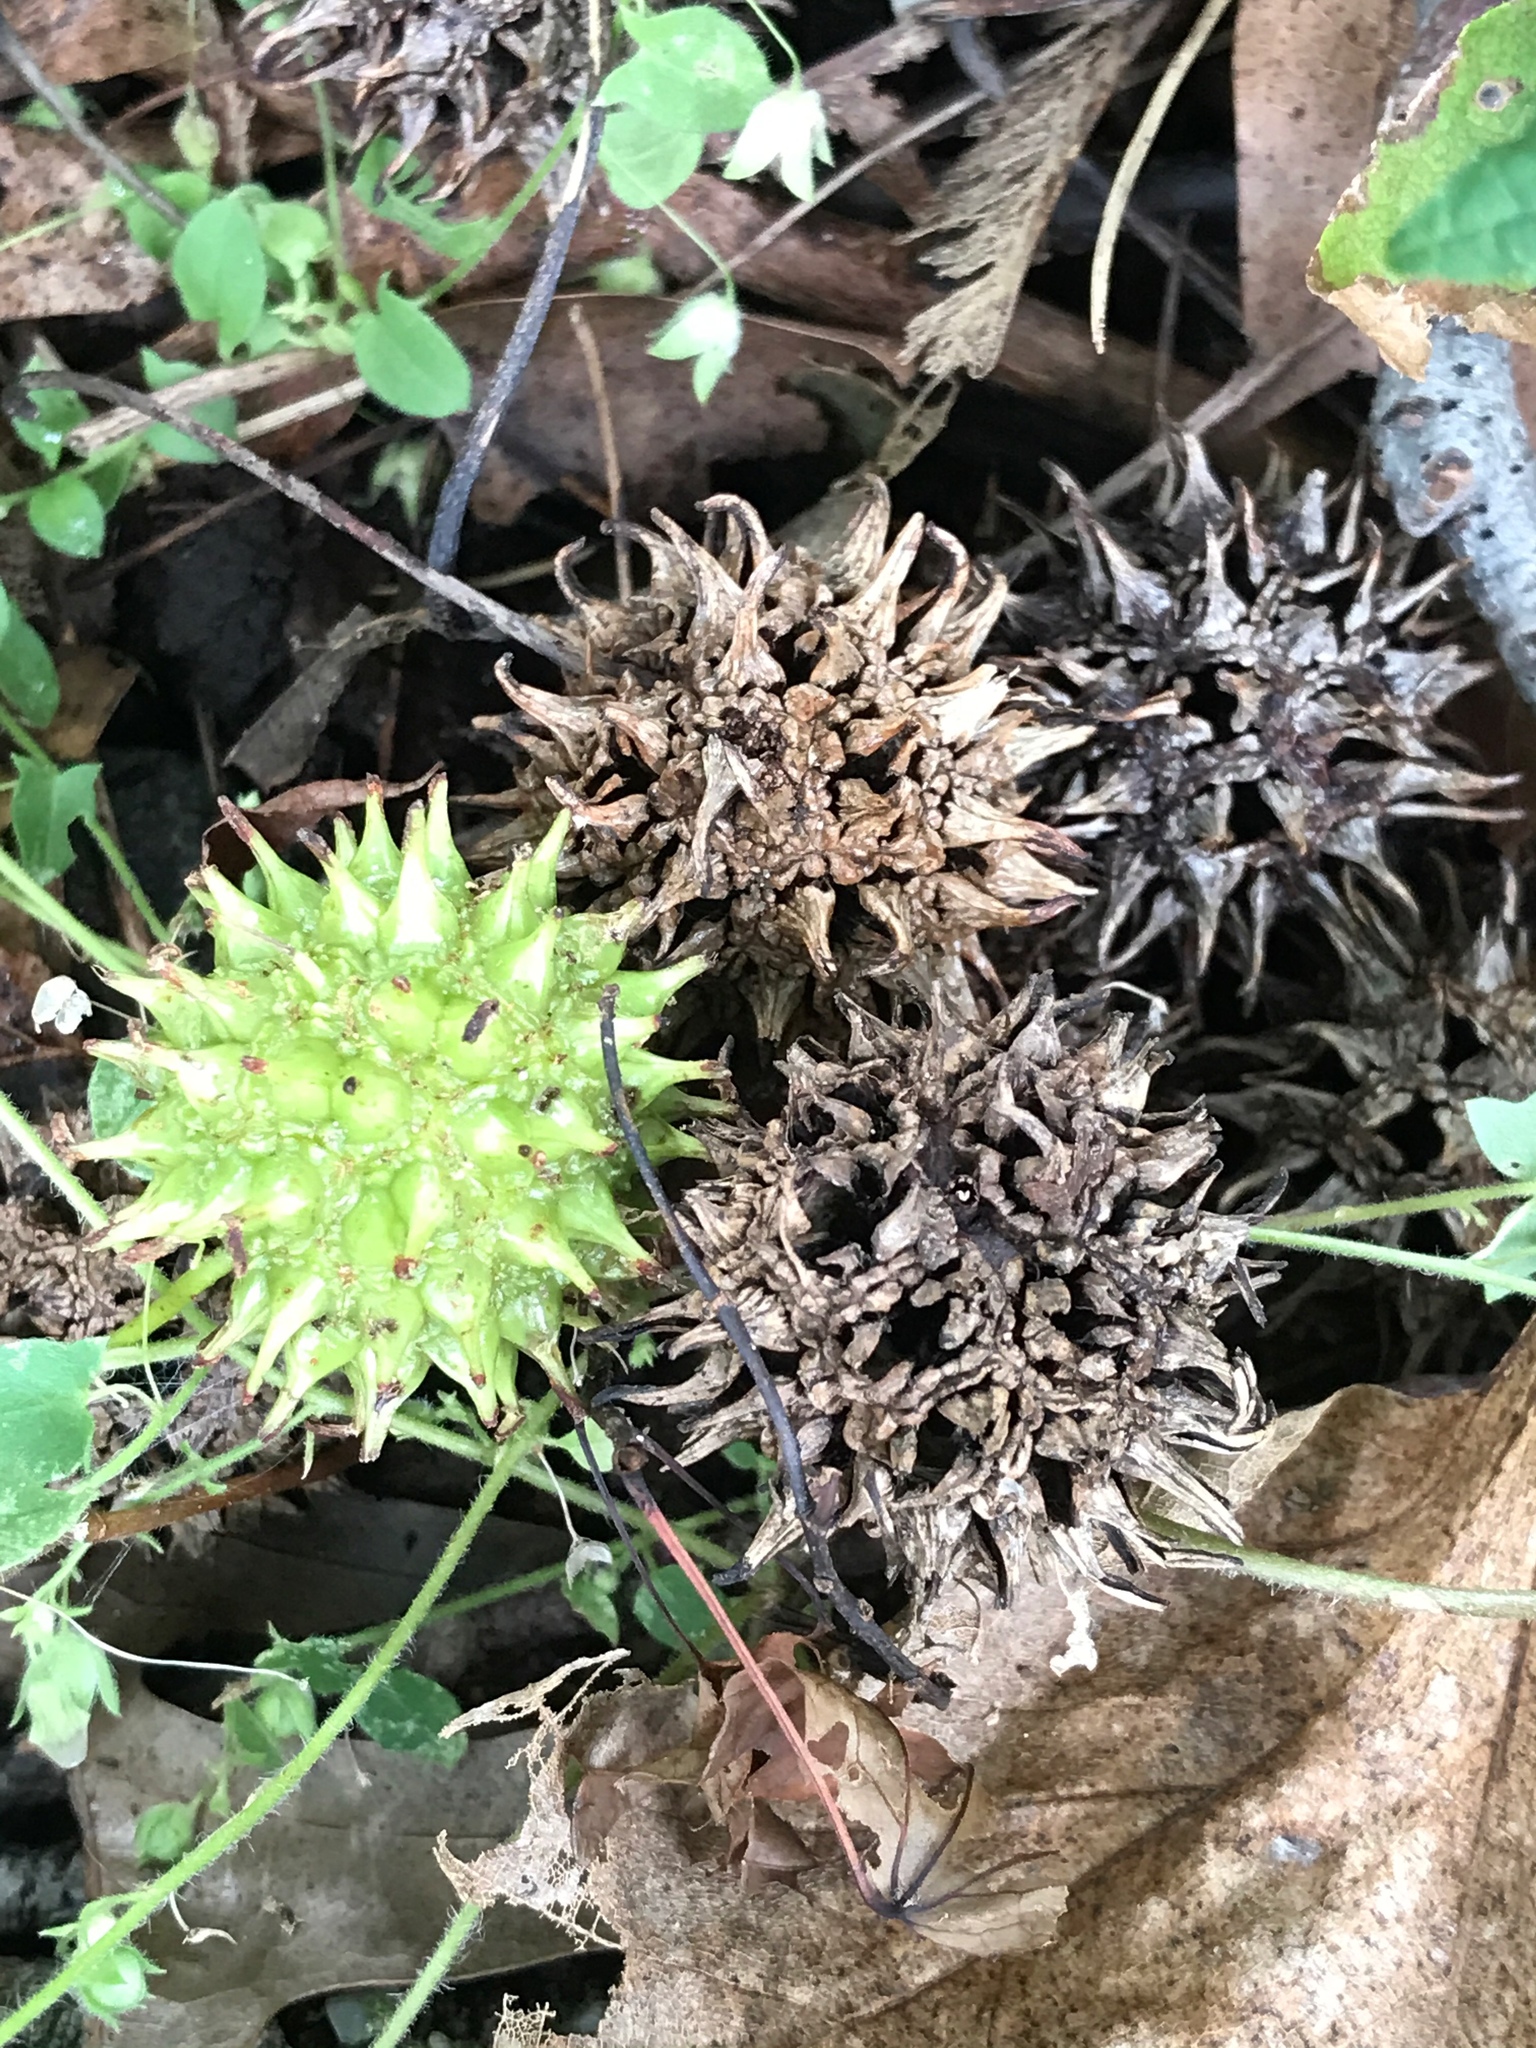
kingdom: Plantae
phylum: Tracheophyta
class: Magnoliopsida
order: Saxifragales
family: Altingiaceae
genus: Liquidambar
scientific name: Liquidambar styraciflua
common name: Sweet gum
